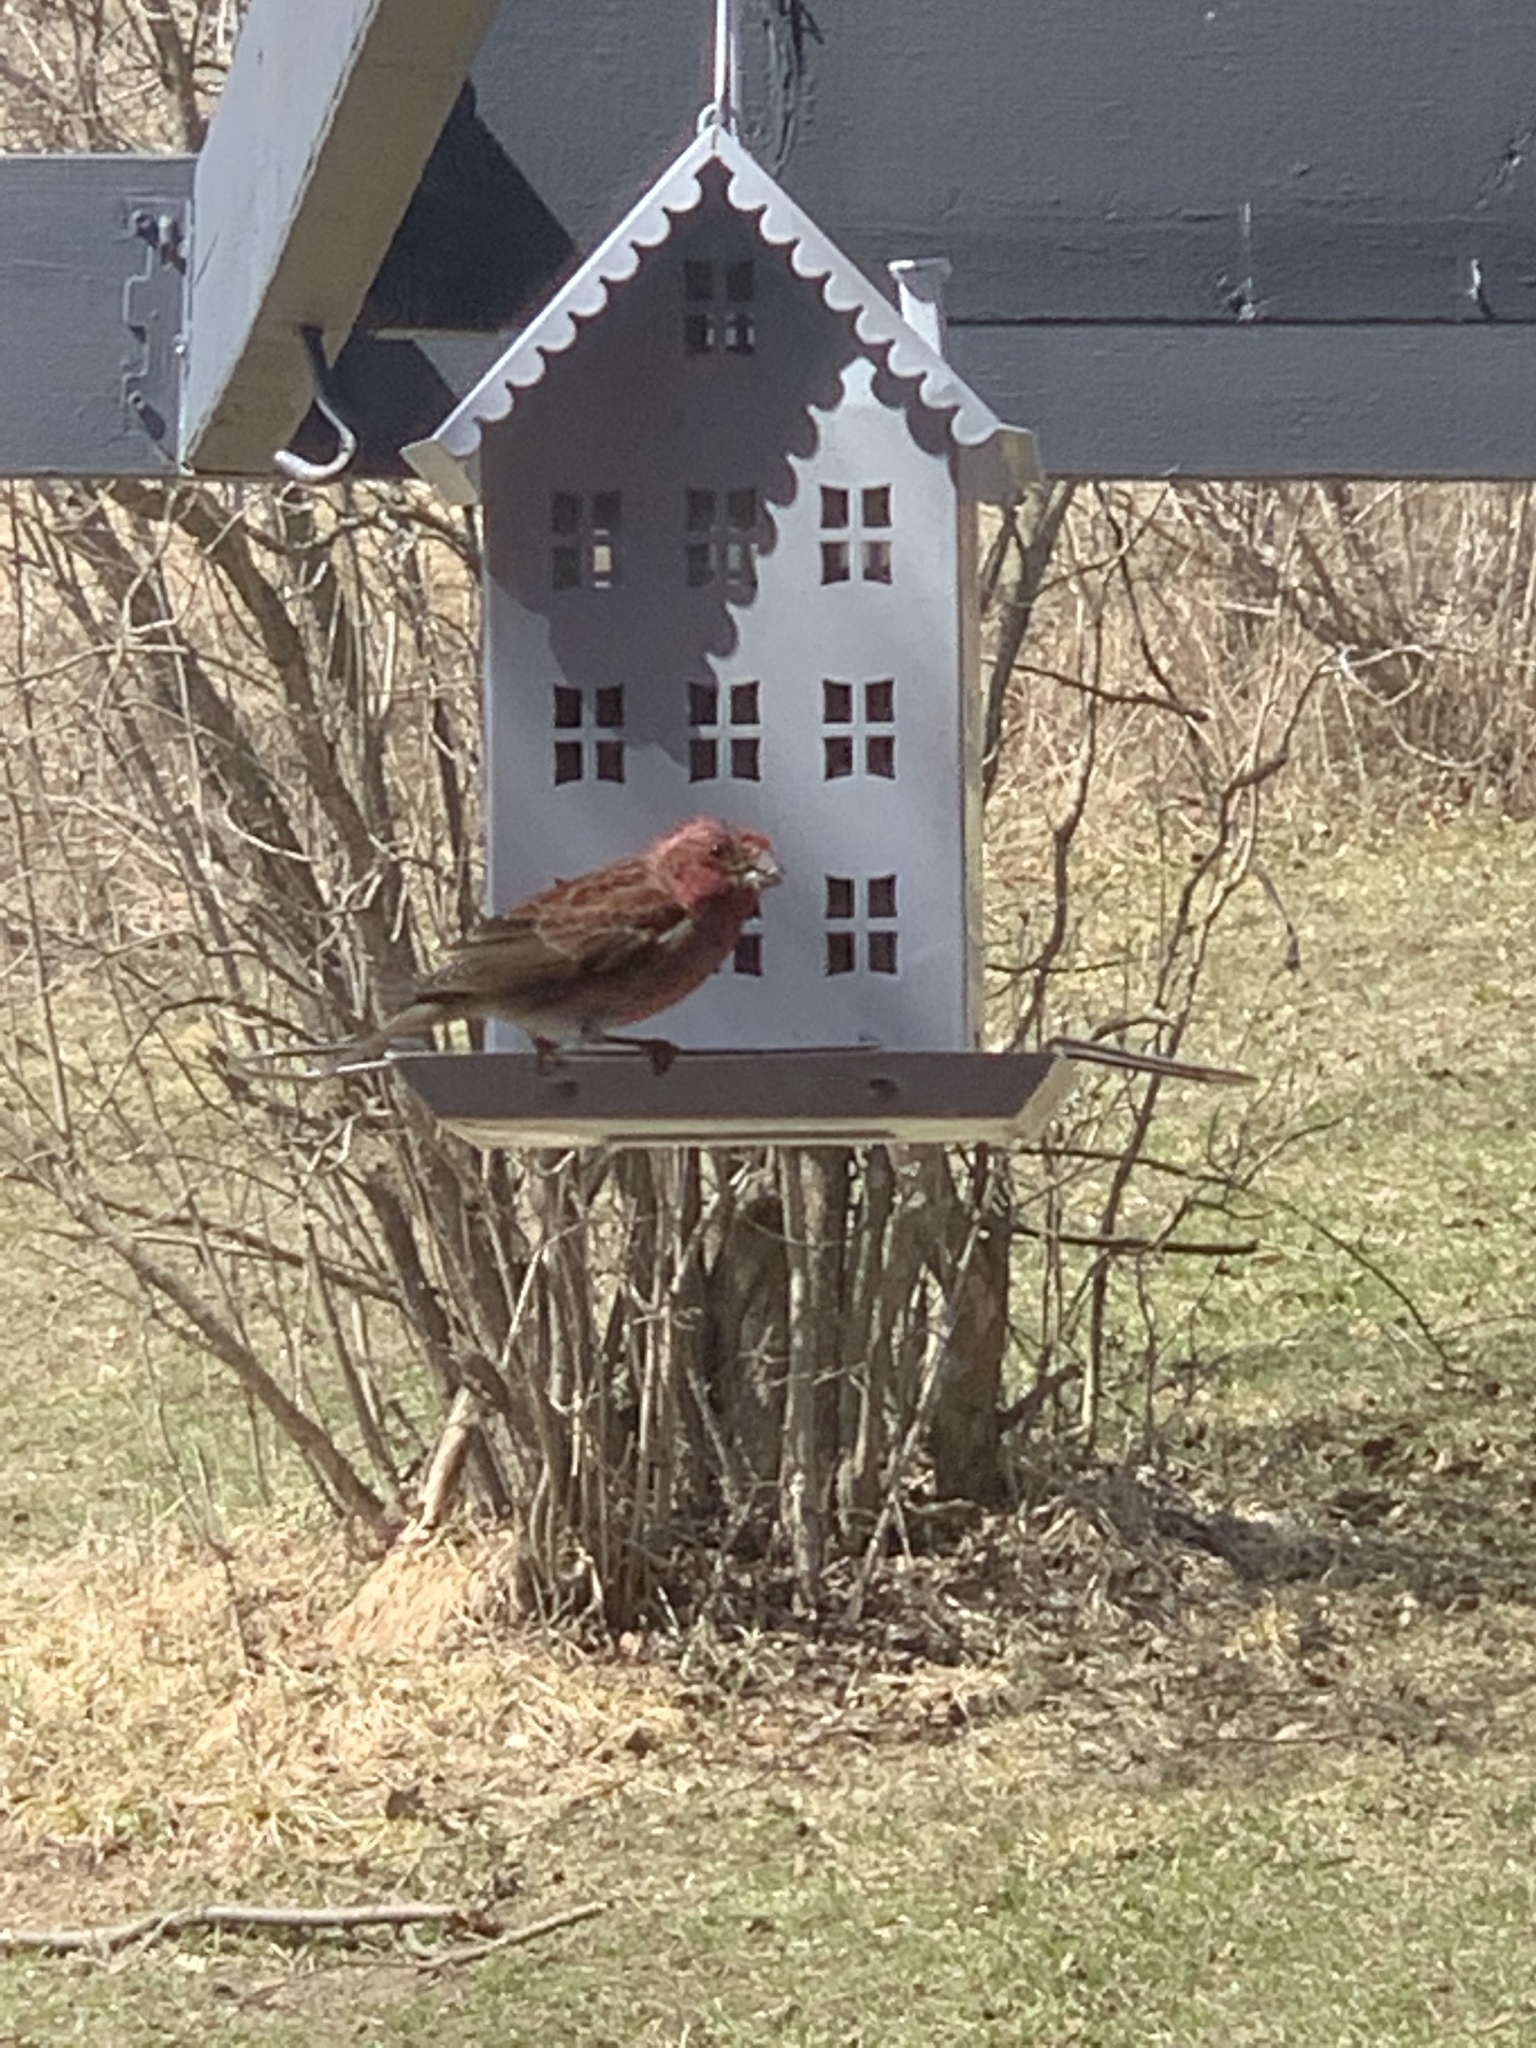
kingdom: Animalia
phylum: Chordata
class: Aves
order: Passeriformes
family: Fringillidae
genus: Haemorhous
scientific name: Haemorhous purpureus
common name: Purple finch
